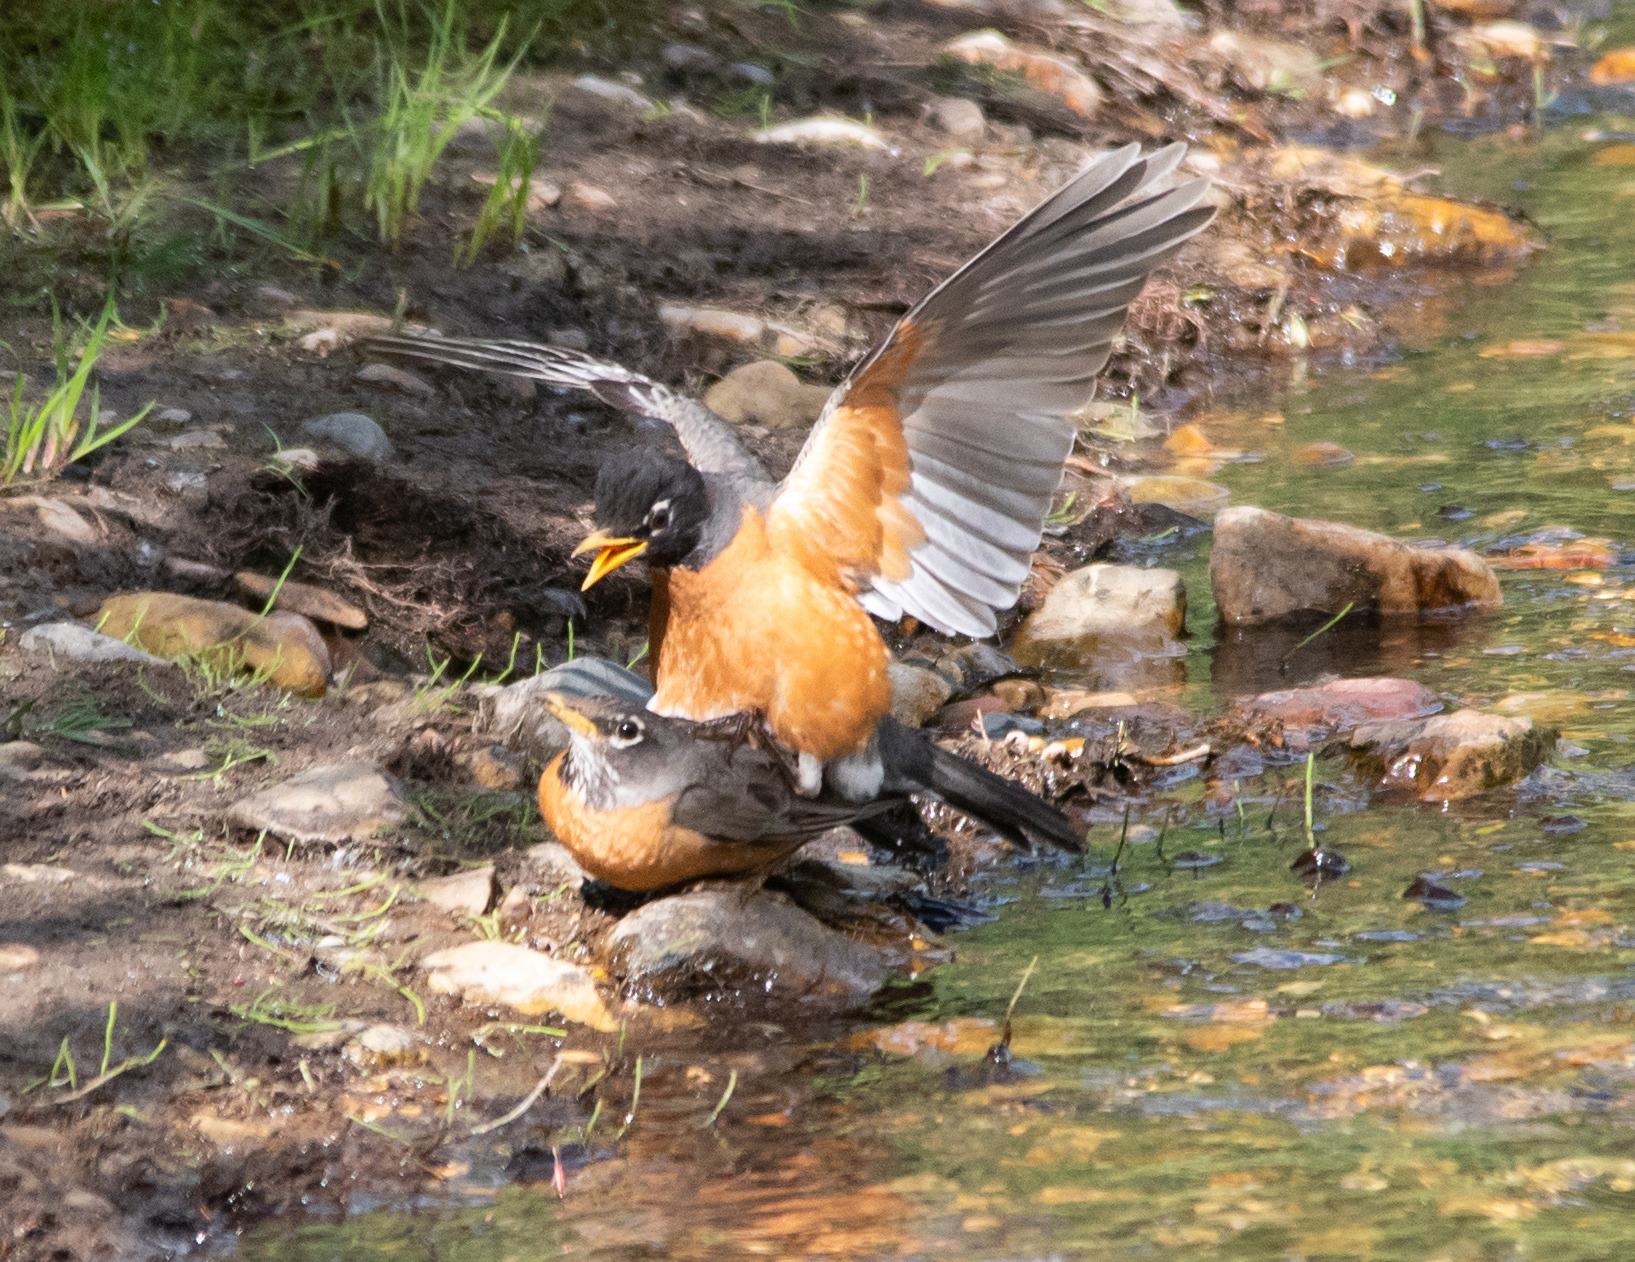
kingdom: Animalia
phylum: Chordata
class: Aves
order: Passeriformes
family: Turdidae
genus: Turdus
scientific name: Turdus migratorius
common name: American robin
